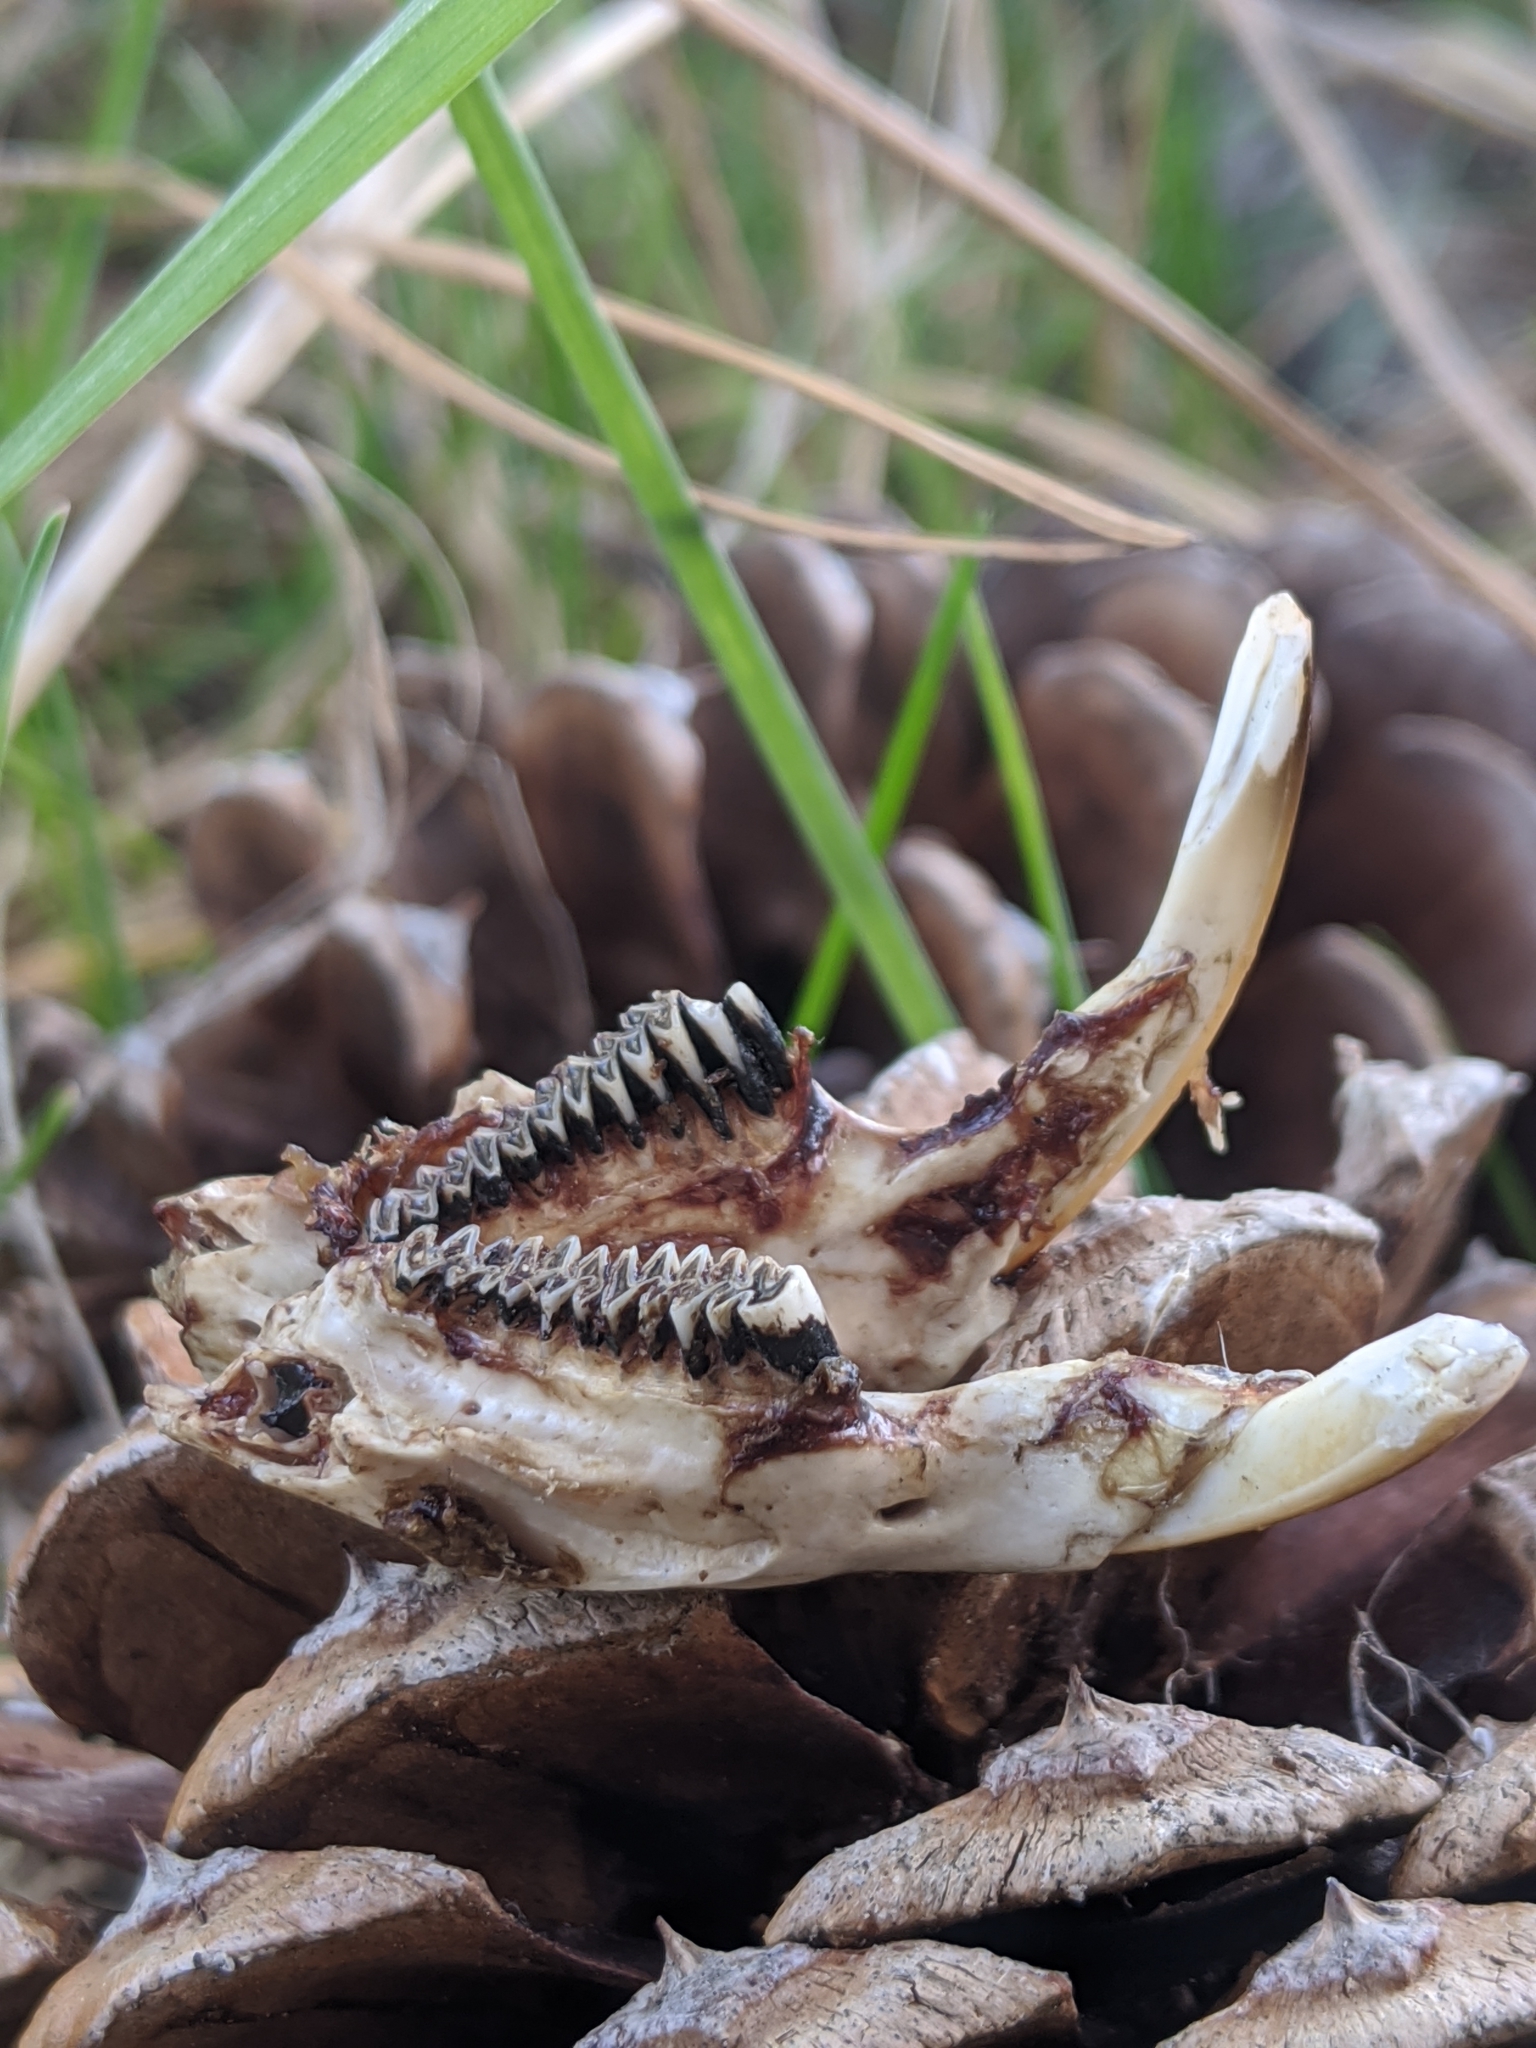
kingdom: Animalia
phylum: Chordata
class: Mammalia
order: Rodentia
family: Cricetidae
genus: Ondatra
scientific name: Ondatra zibethicus
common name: Muskrat
